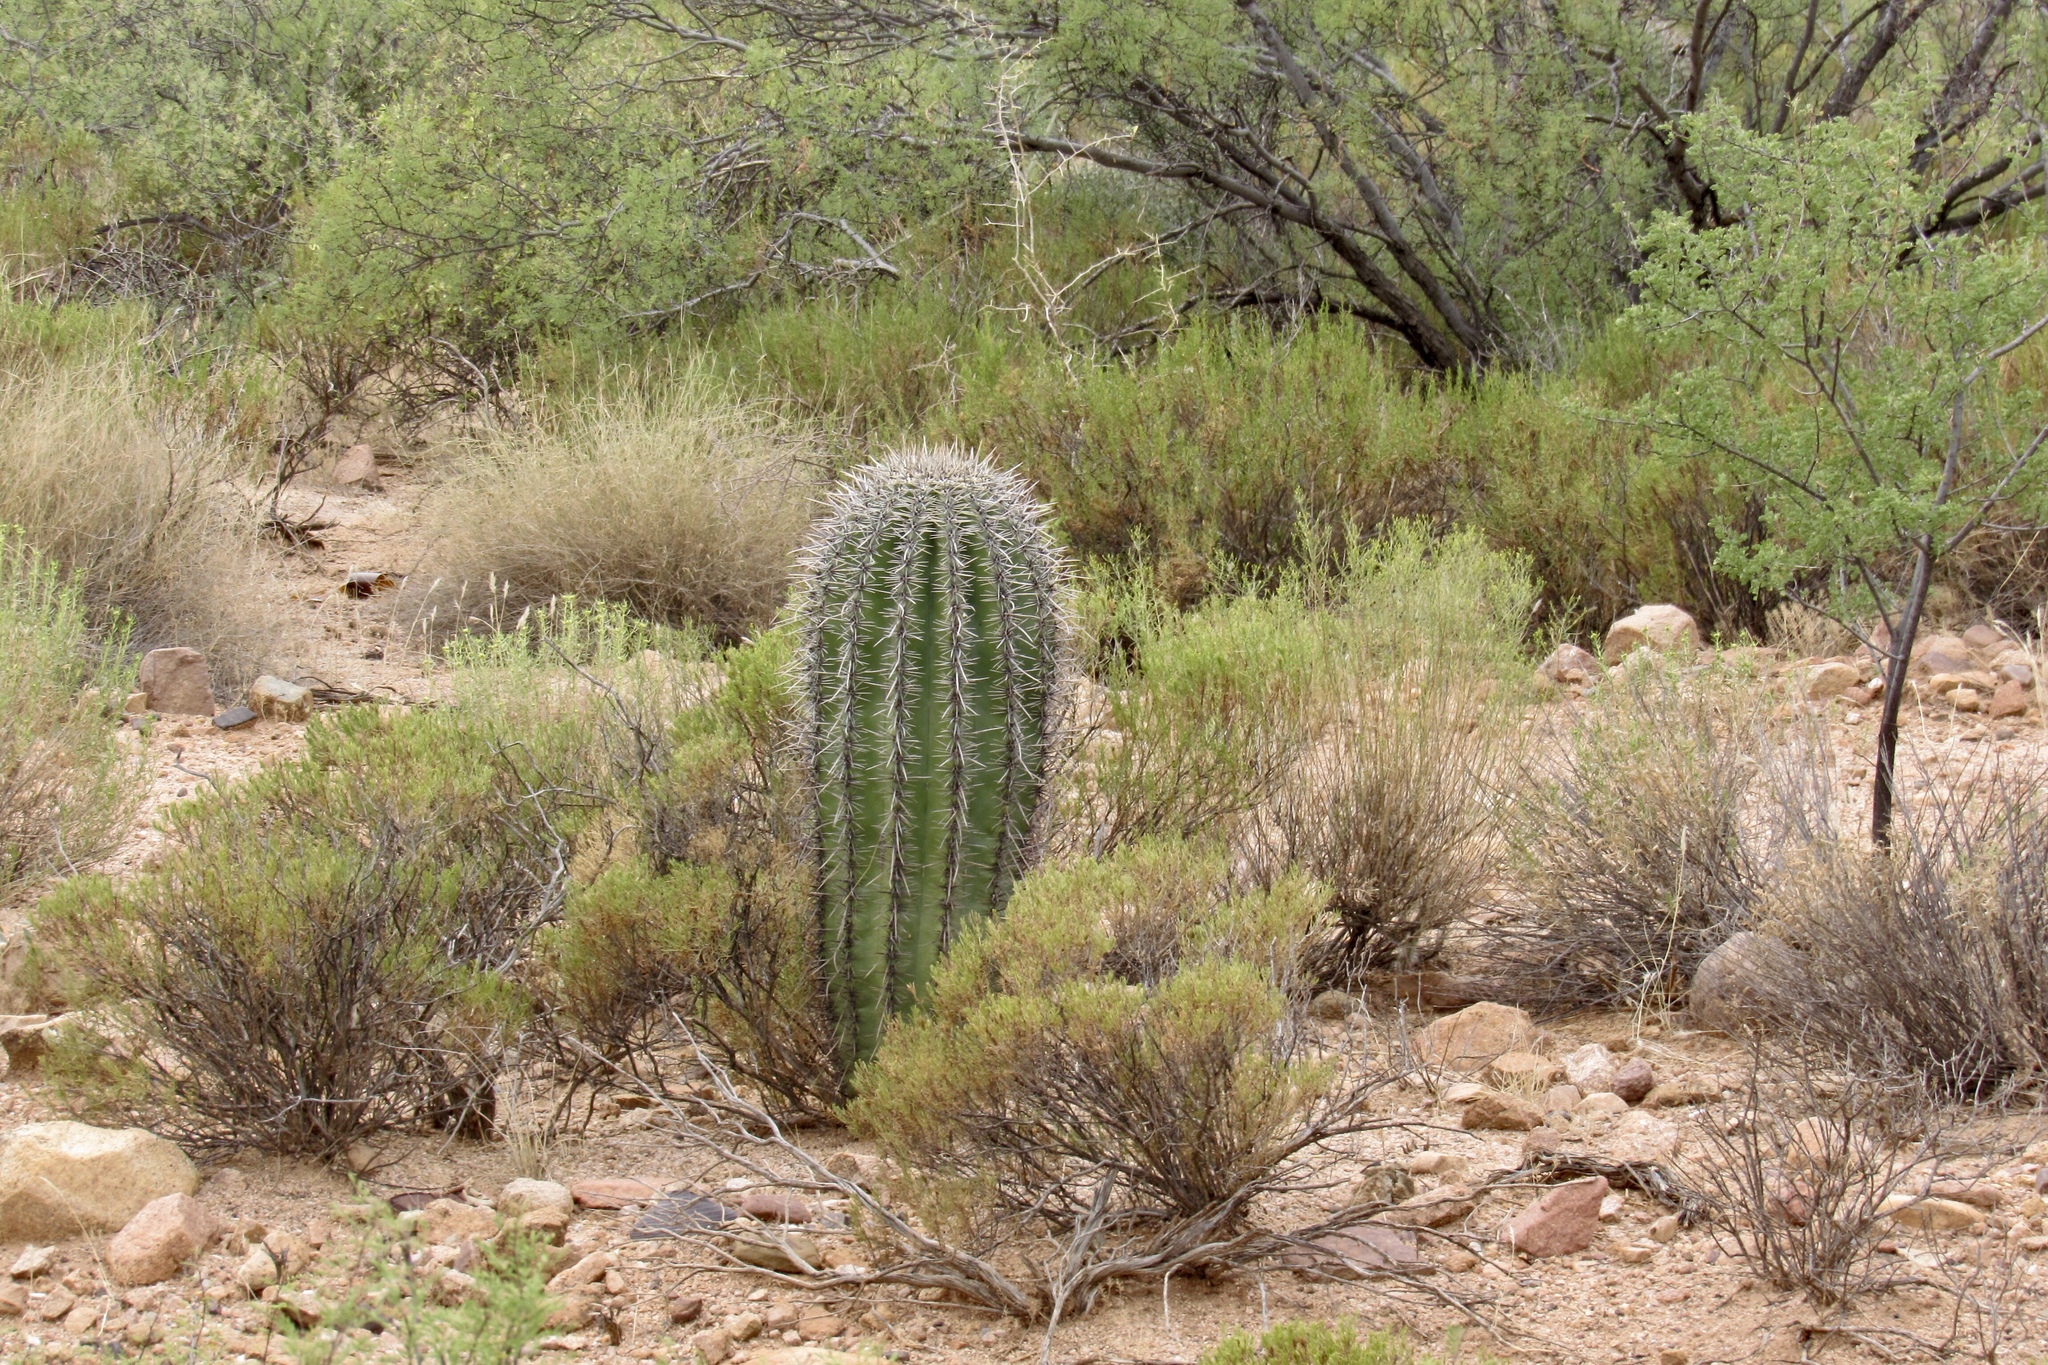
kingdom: Plantae
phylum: Tracheophyta
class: Magnoliopsida
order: Caryophyllales
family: Cactaceae
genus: Carnegiea
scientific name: Carnegiea gigantea
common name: Saguaro
